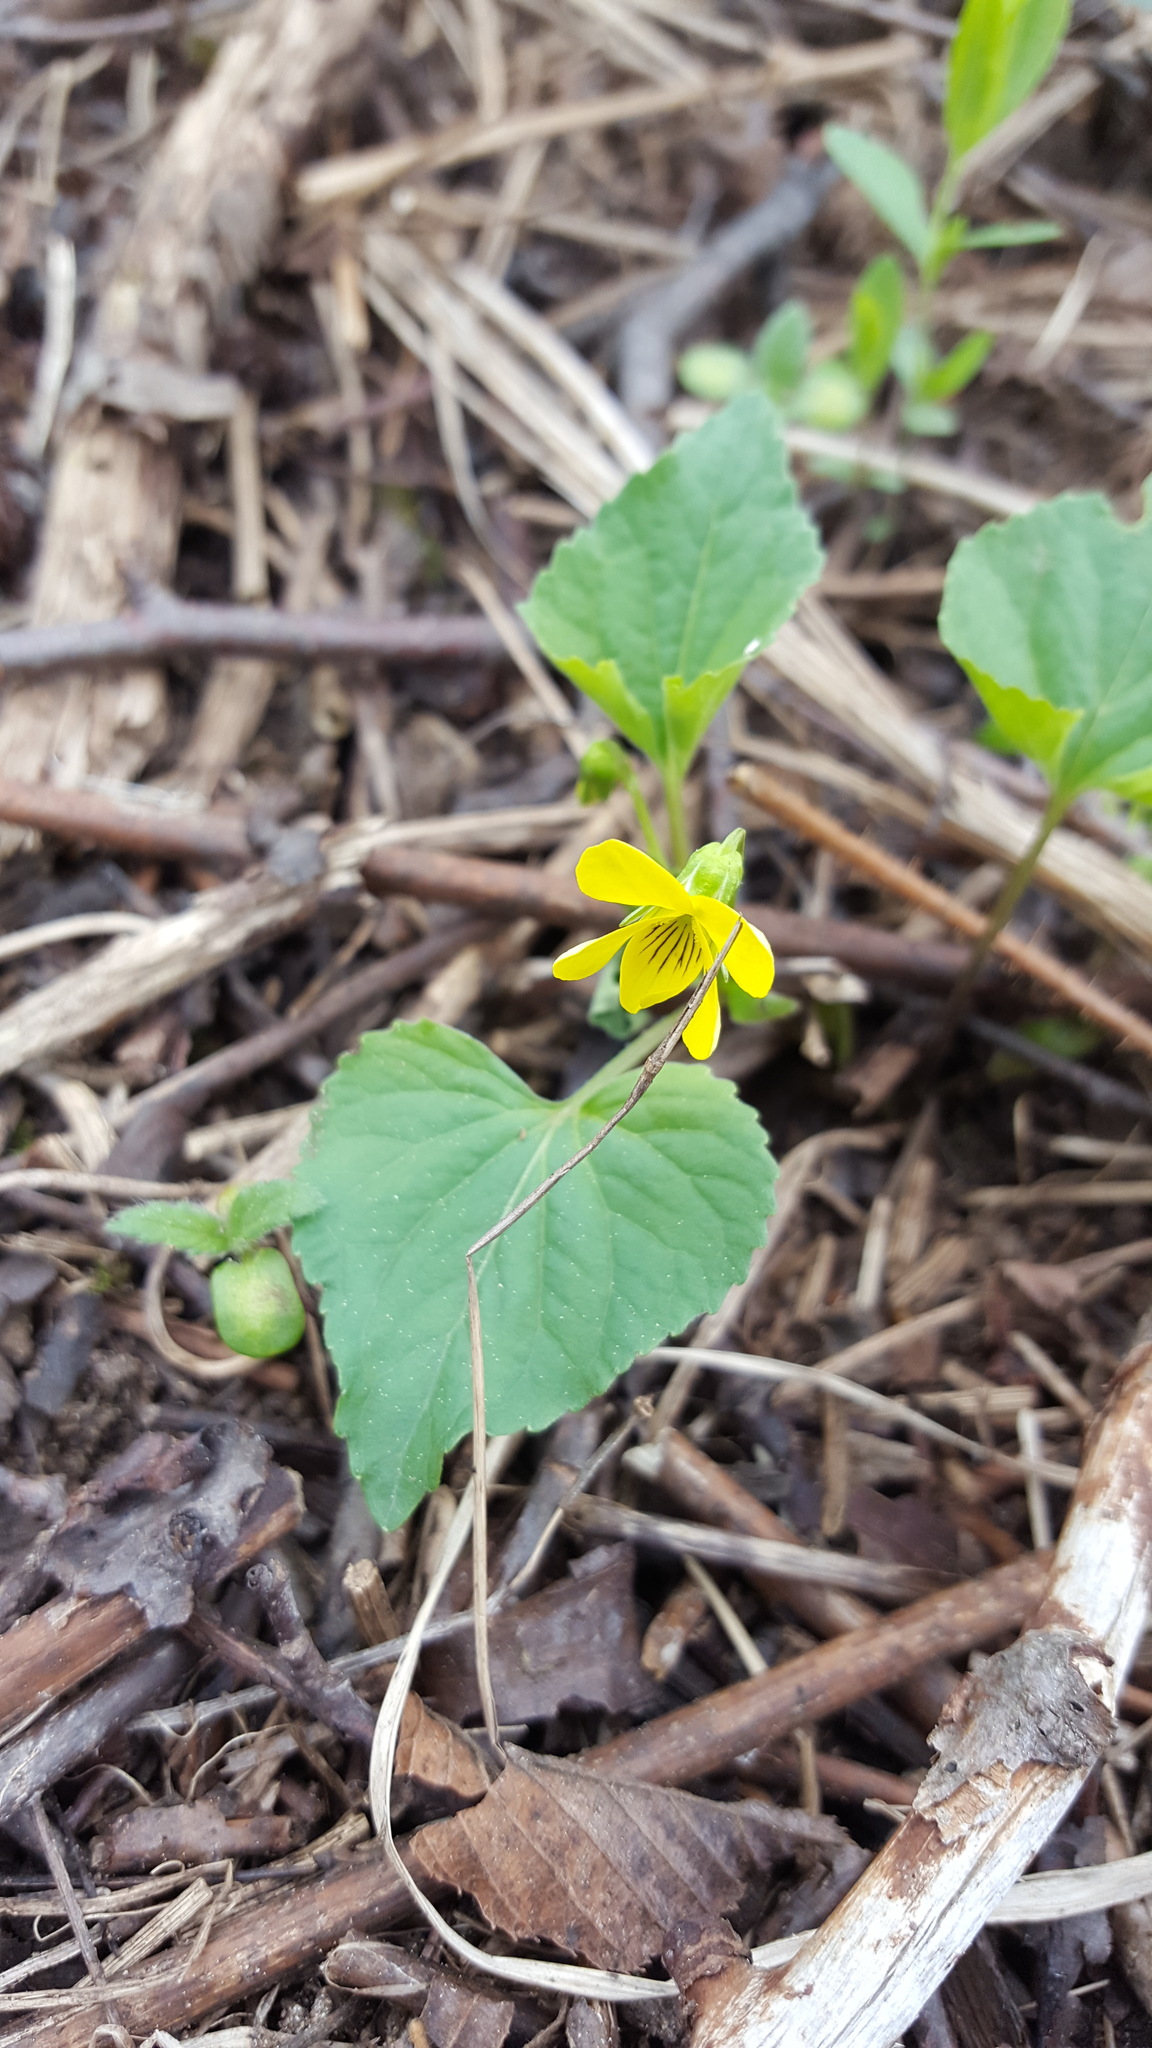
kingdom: Plantae
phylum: Tracheophyta
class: Magnoliopsida
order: Malpighiales
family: Violaceae
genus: Viola
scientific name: Viola eriocarpa
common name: Smooth yellow violet
